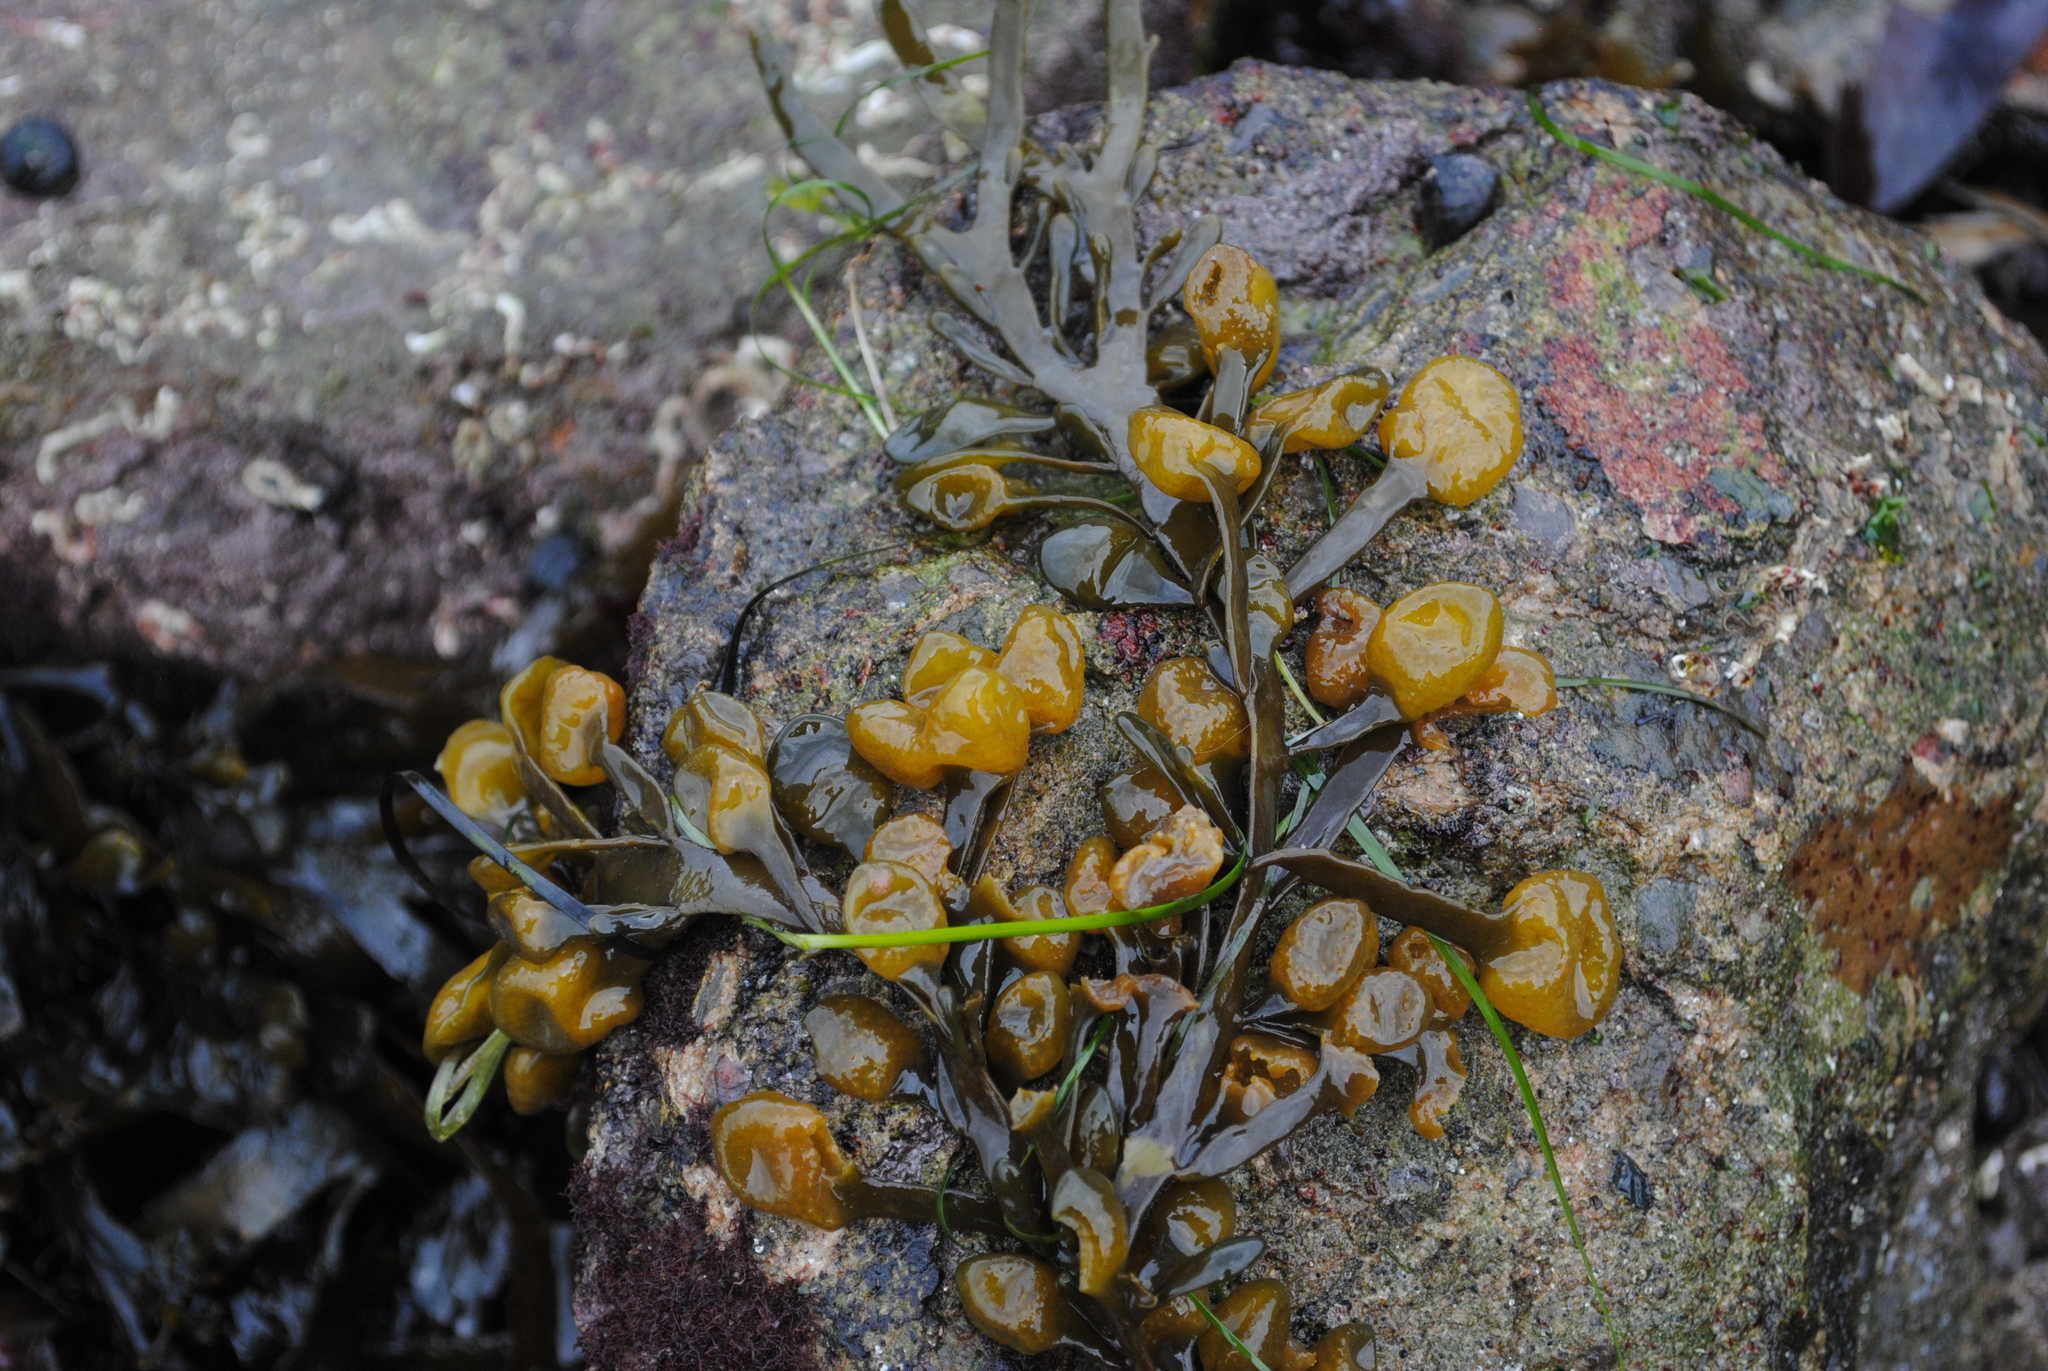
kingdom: Chromista
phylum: Ochrophyta
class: Phaeophyceae
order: Fucales
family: Fucaceae
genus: Ascophyllum
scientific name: Ascophyllum nodosum
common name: Knotted wrack
